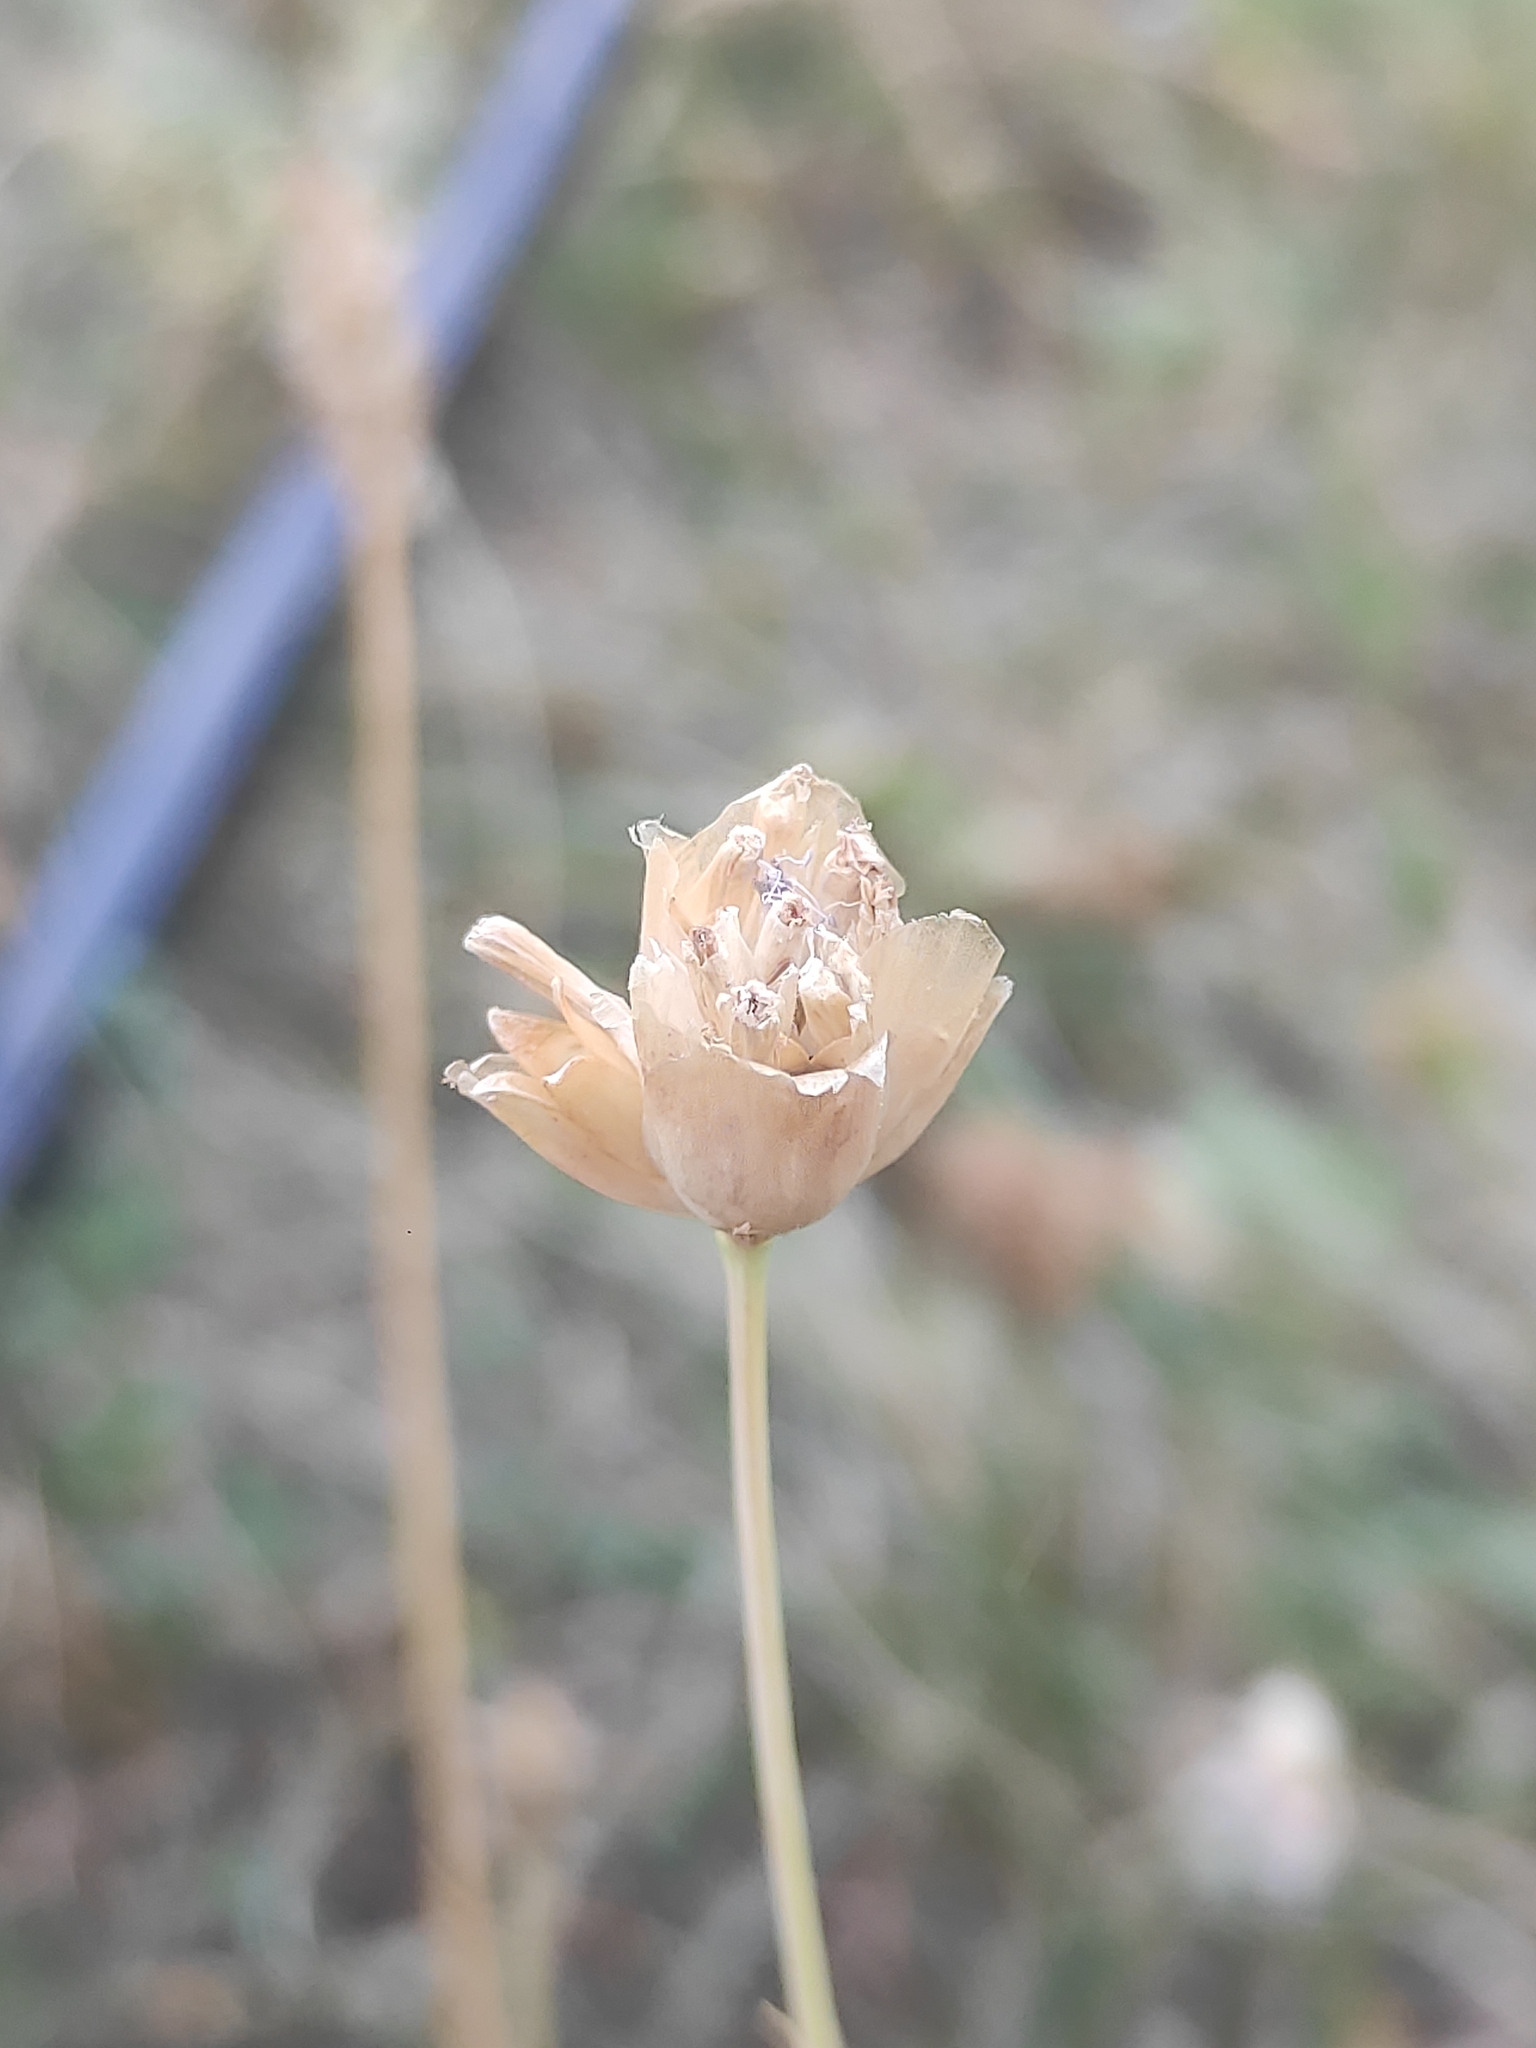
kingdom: Plantae
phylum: Tracheophyta
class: Magnoliopsida
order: Caryophyllales
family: Caryophyllaceae
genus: Petrorhagia
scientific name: Petrorhagia prolifera
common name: Proliferous pink
